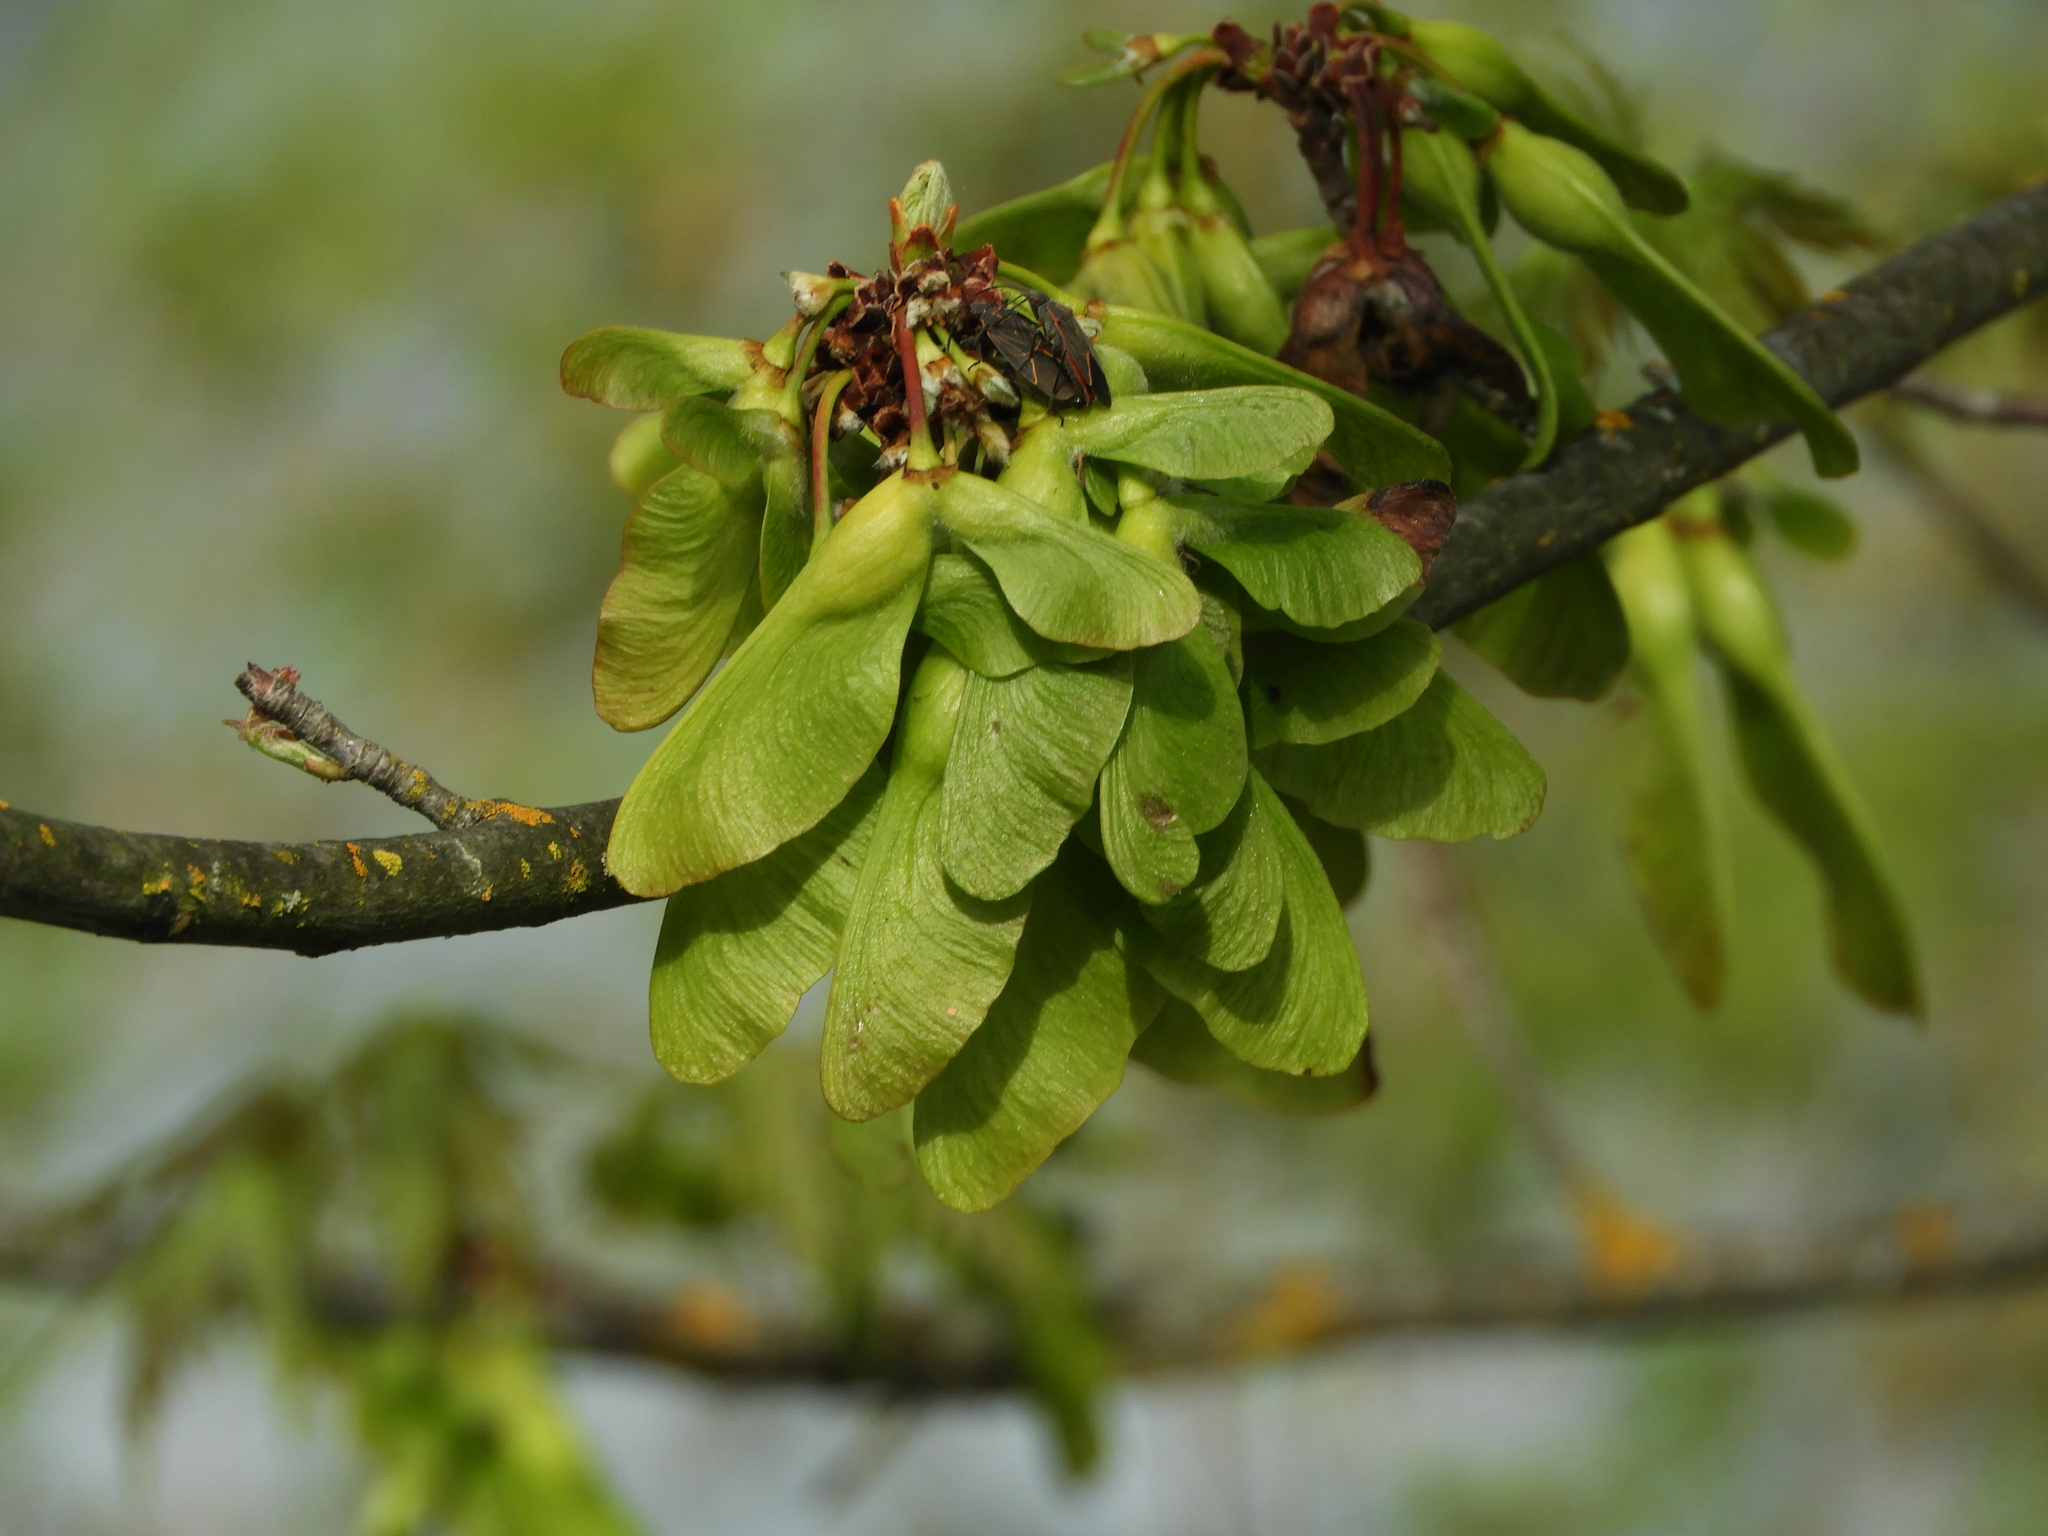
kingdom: Plantae
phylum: Tracheophyta
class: Magnoliopsida
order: Sapindales
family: Sapindaceae
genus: Acer
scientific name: Acer negundo
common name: Ashleaf maple
